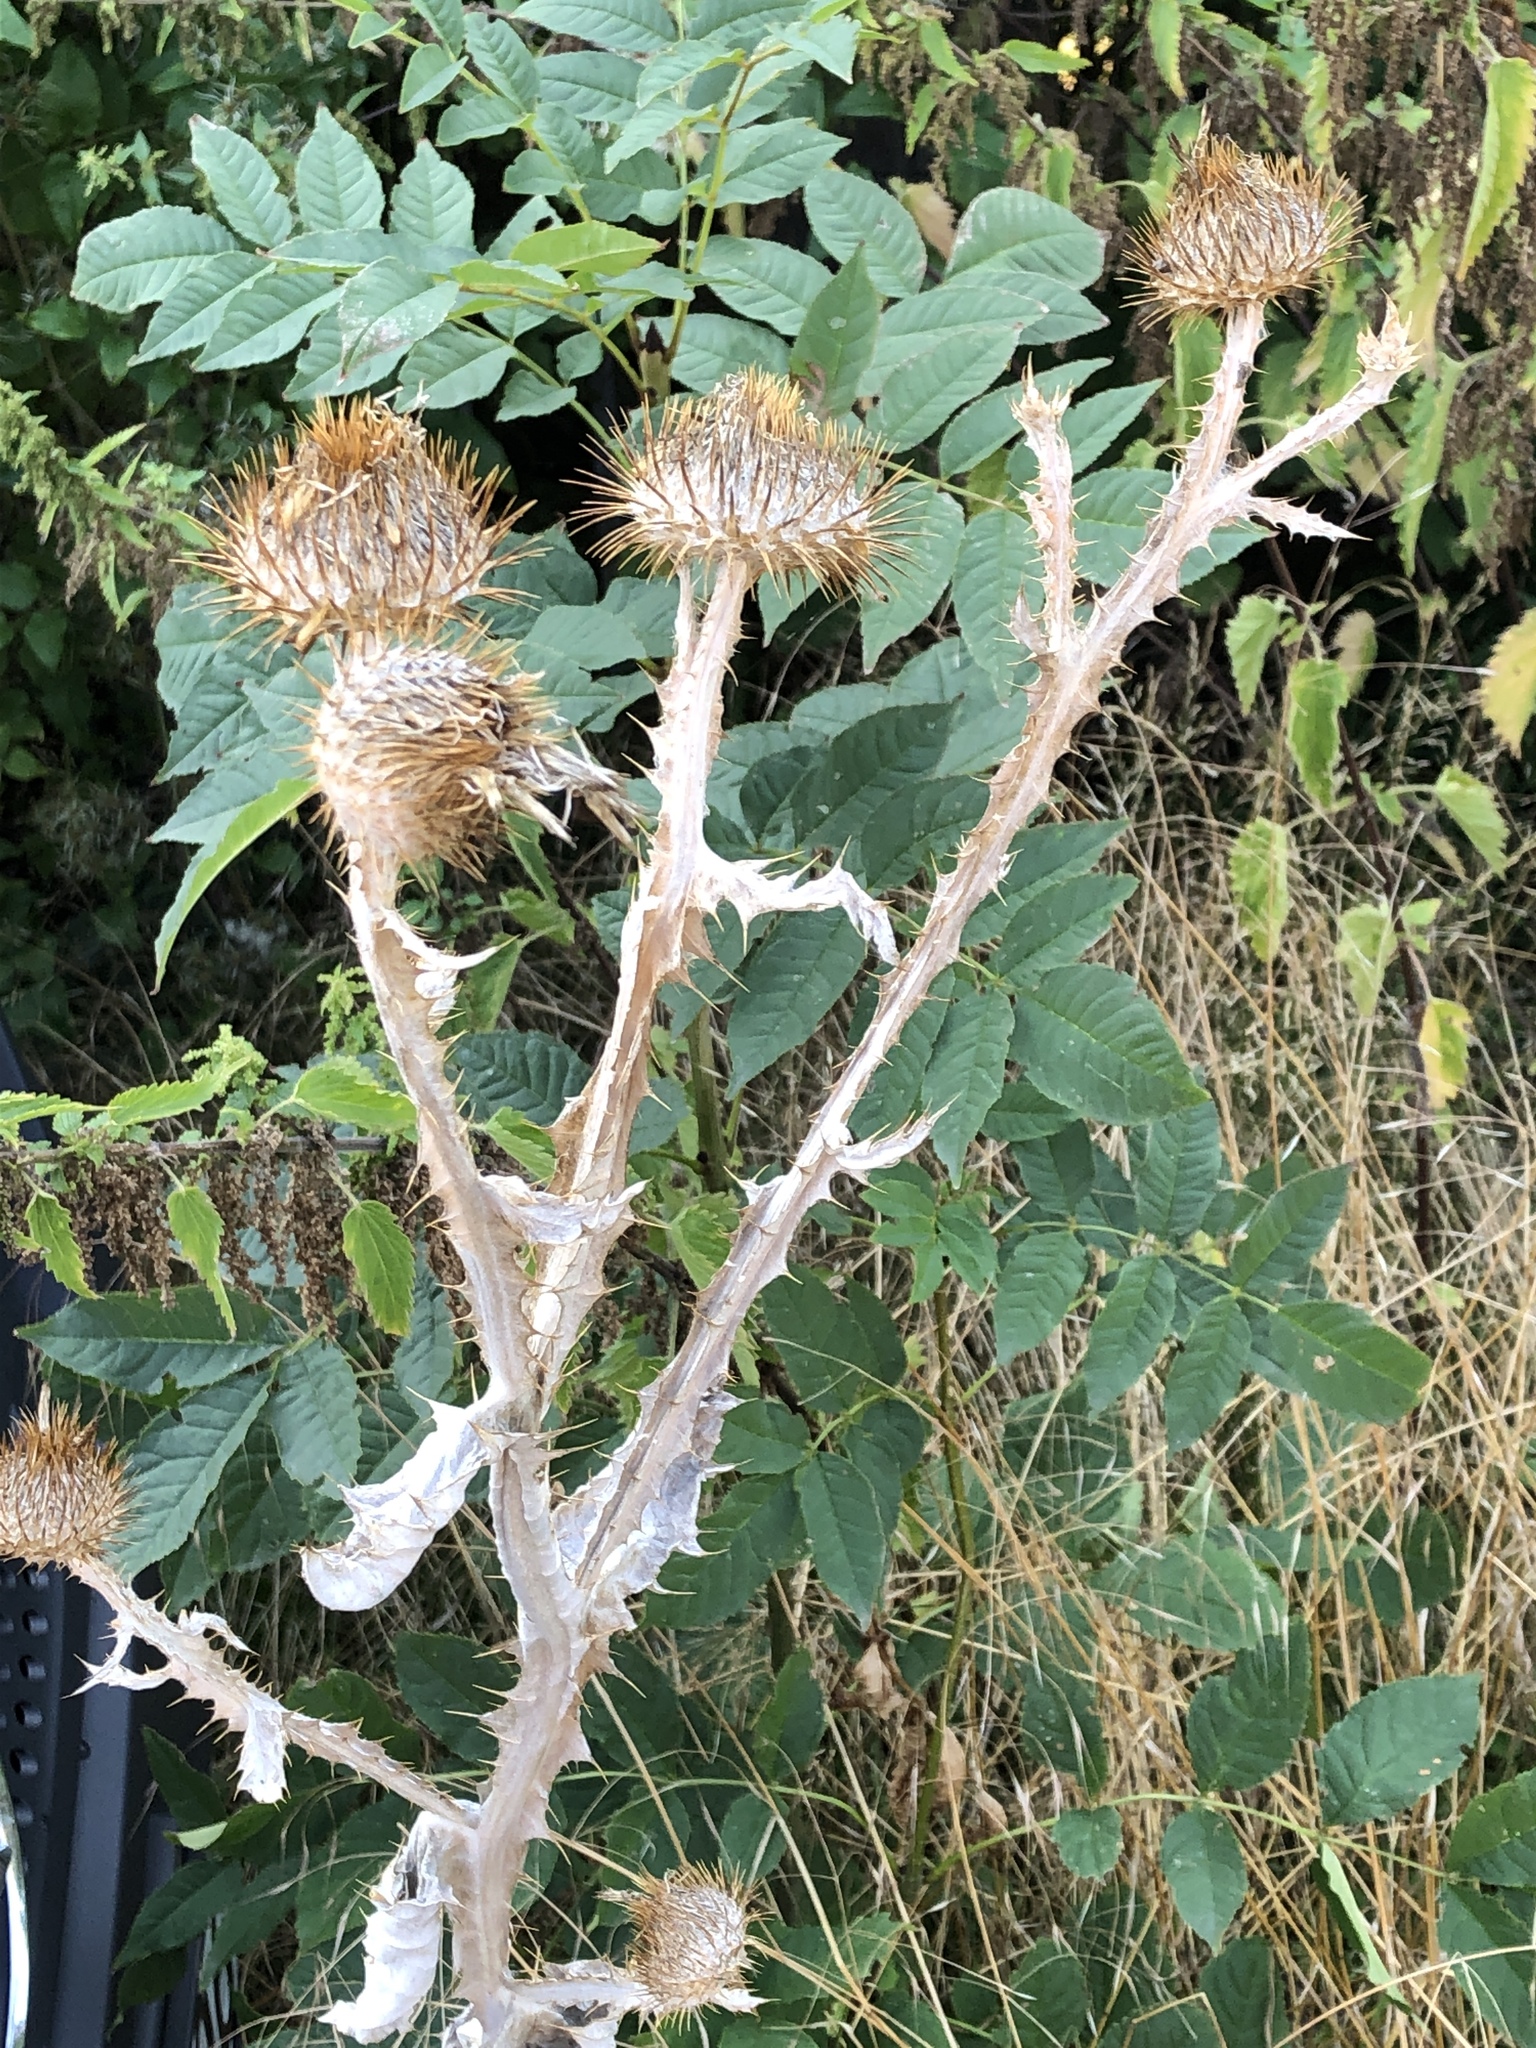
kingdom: Plantae
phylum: Tracheophyta
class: Magnoliopsida
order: Asterales
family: Asteraceae
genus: Onopordum
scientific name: Onopordum acanthium
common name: Scotch thistle
